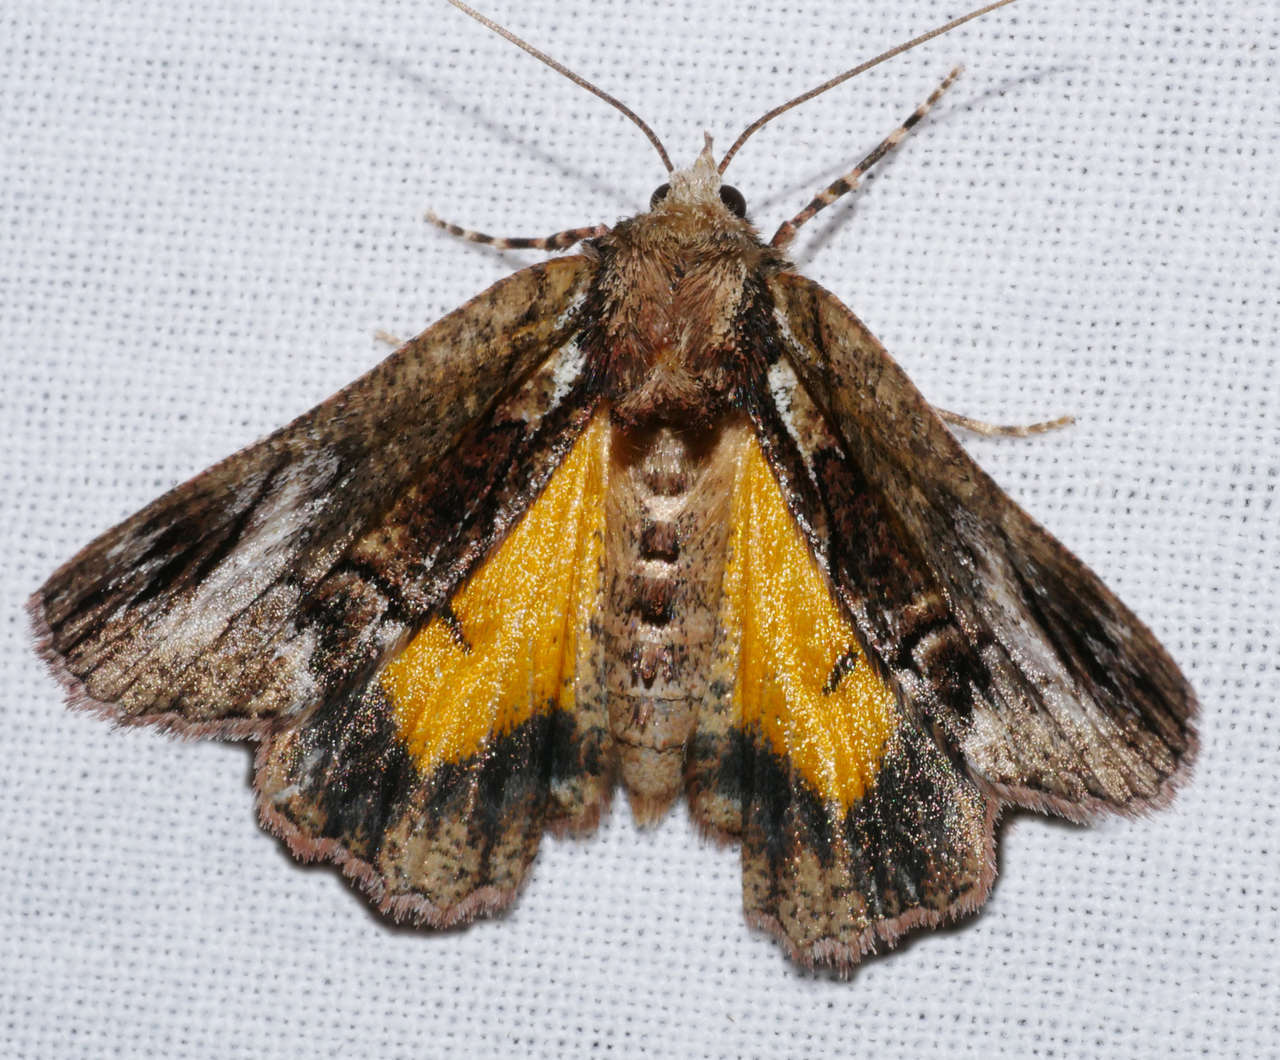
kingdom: Animalia
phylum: Arthropoda
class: Insecta
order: Lepidoptera
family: Geometridae
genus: Heliomystis
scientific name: Heliomystis electrica
